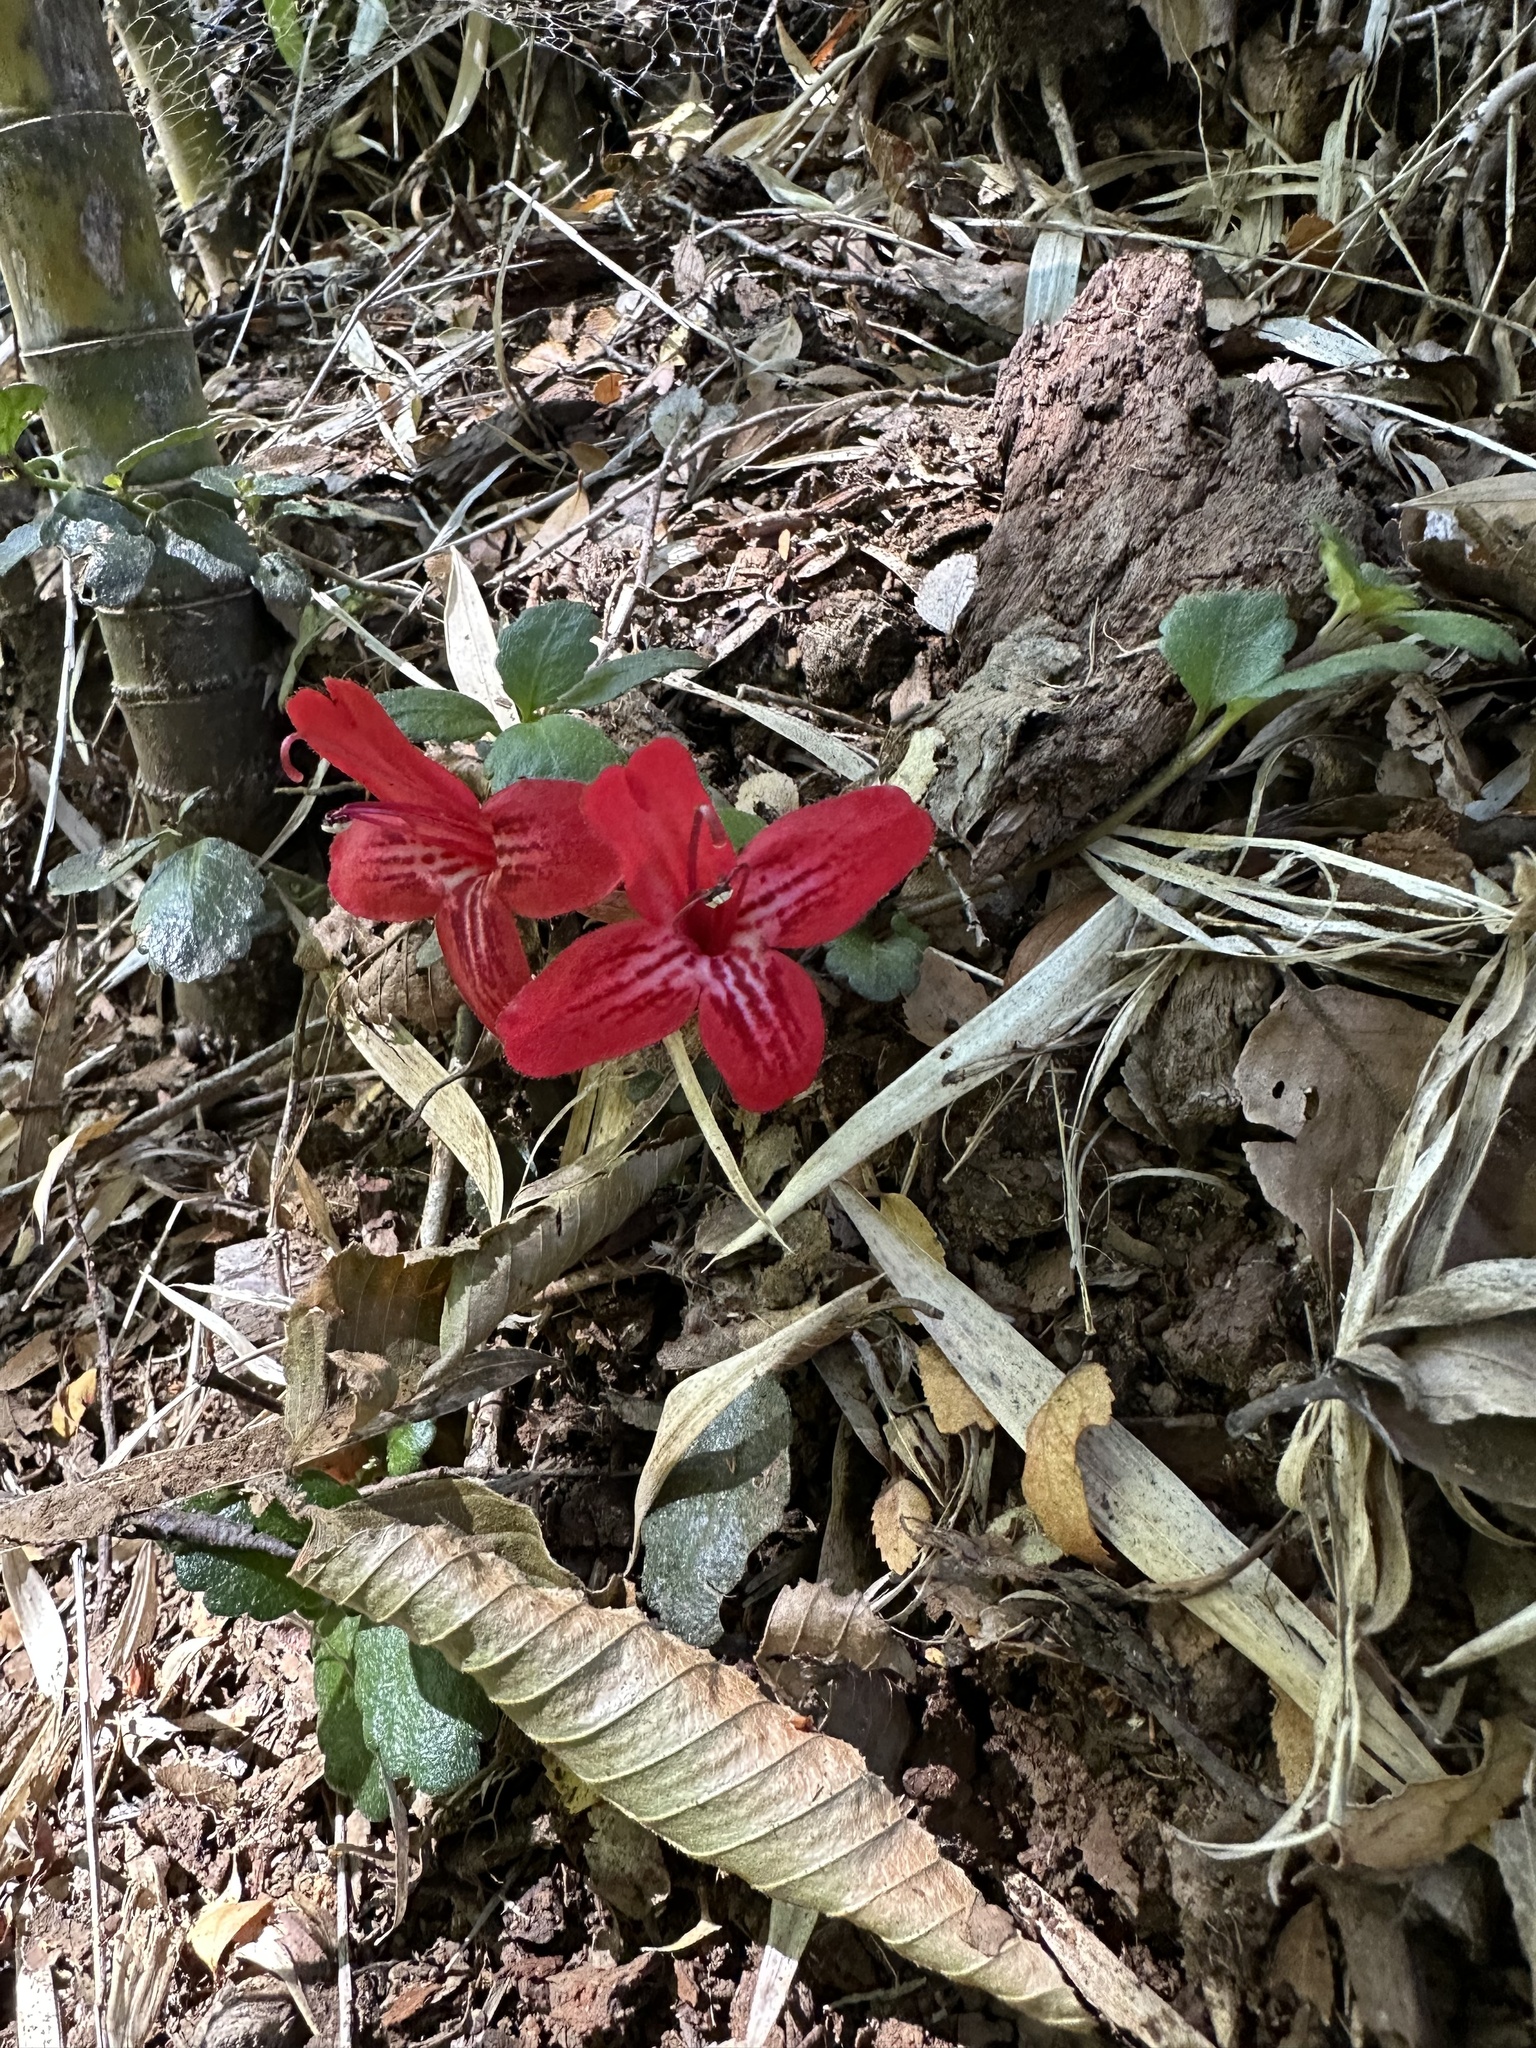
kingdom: Plantae
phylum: Tracheophyta
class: Magnoliopsida
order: Lamiales
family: Gesneriaceae
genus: Asteranthera
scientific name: Asteranthera ovata
